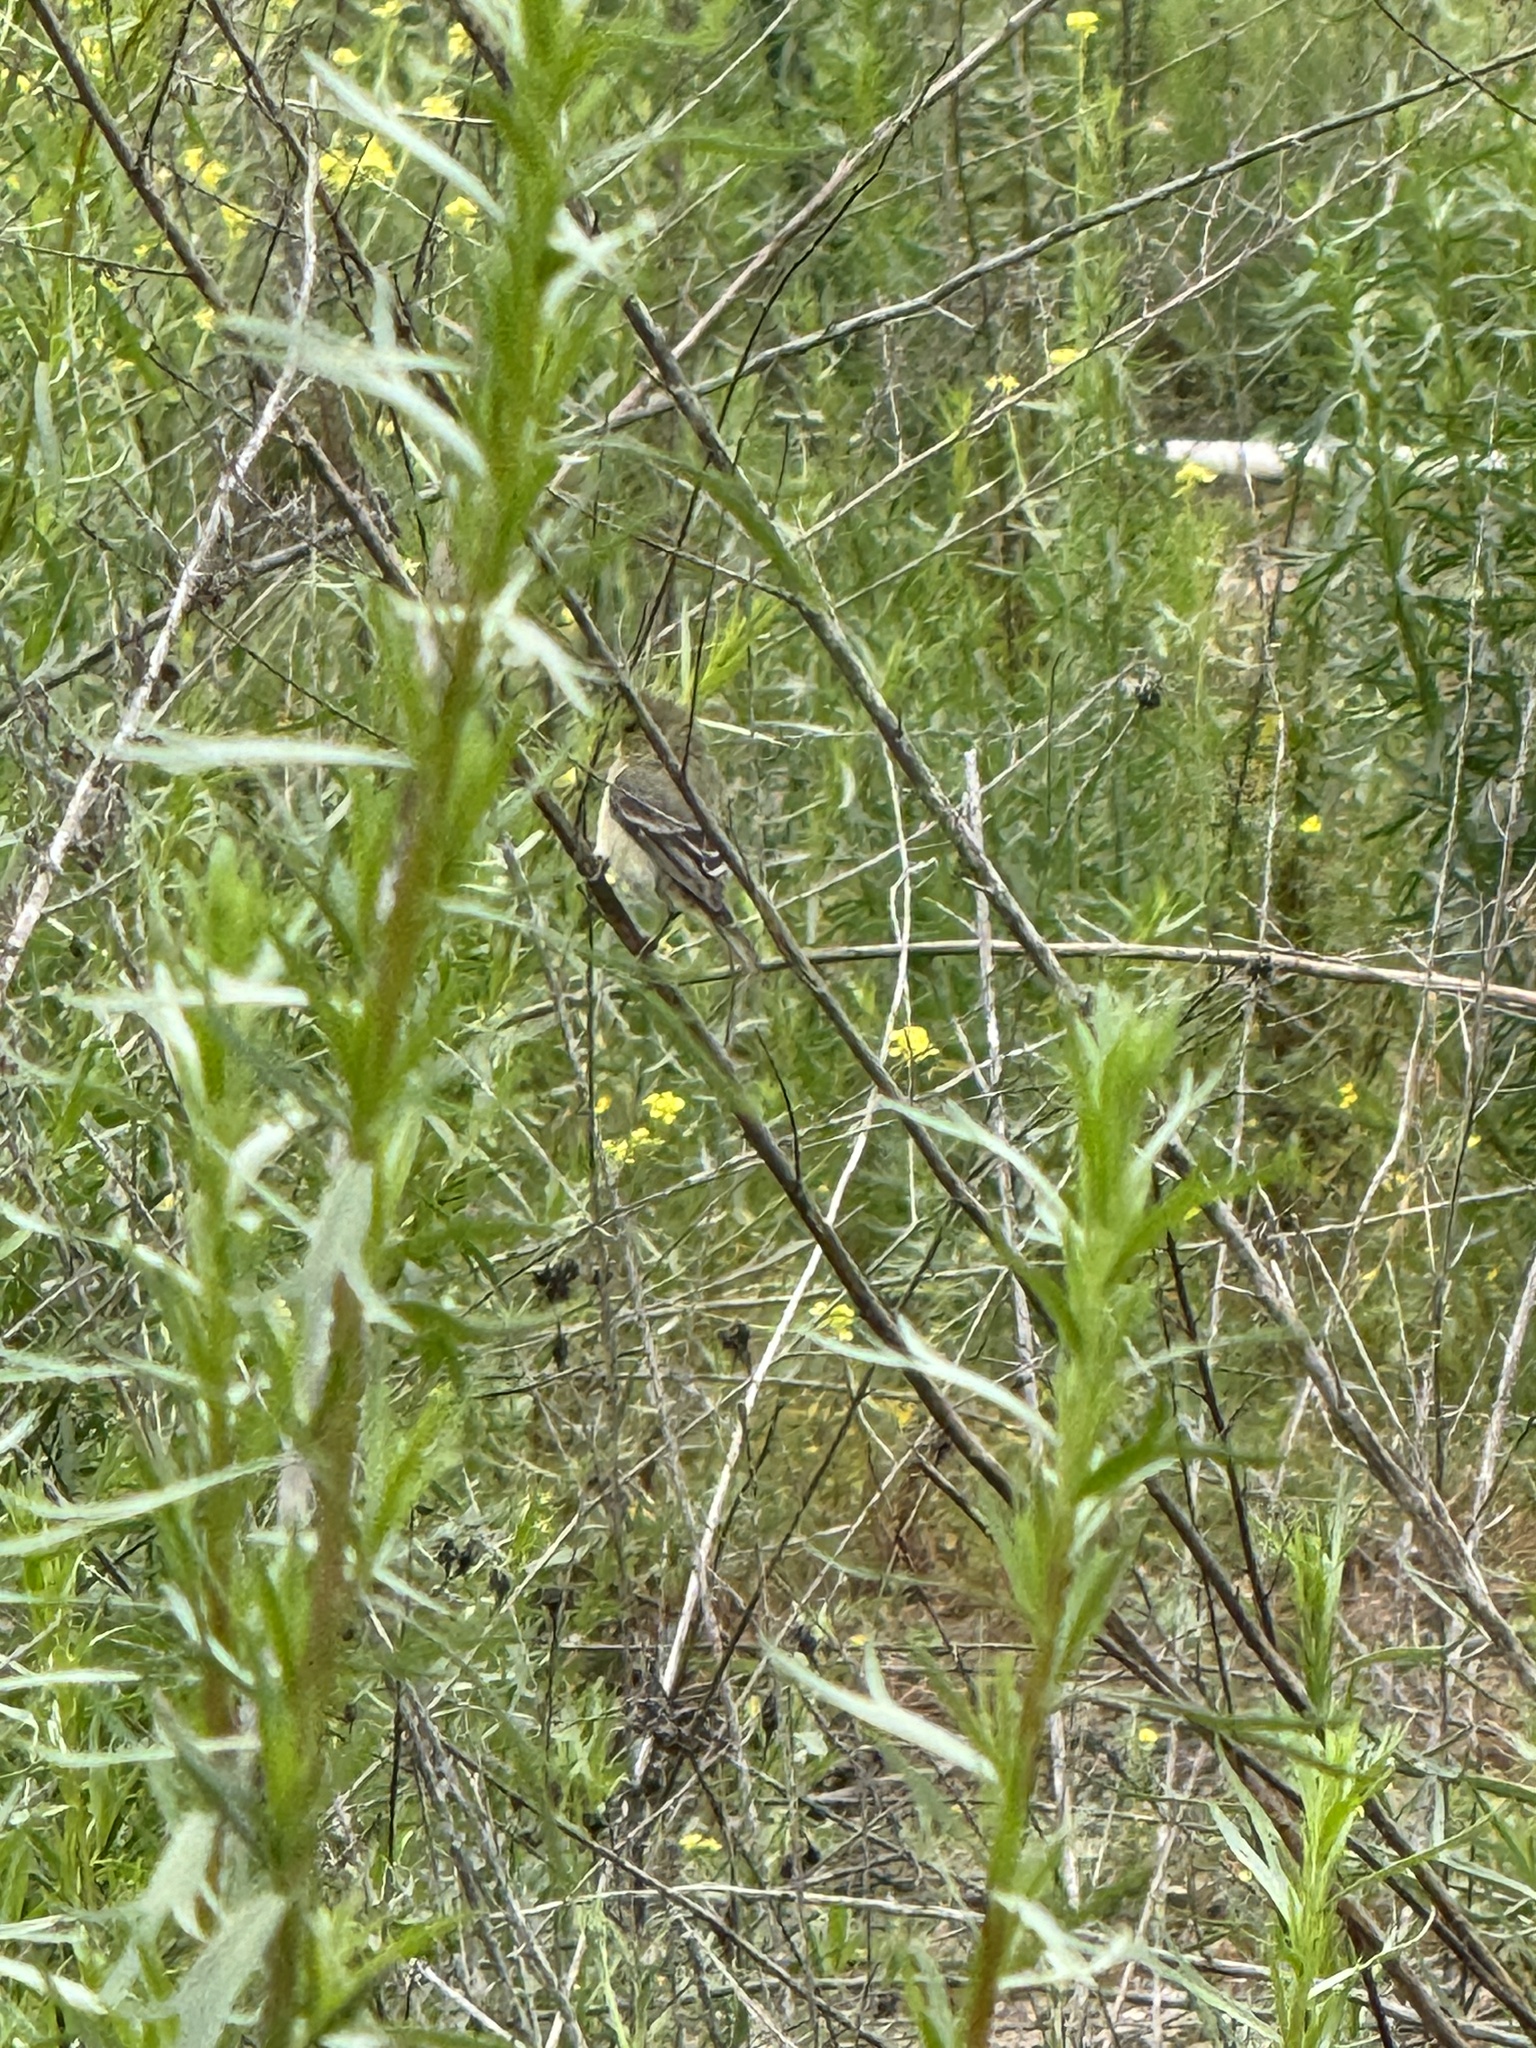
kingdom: Animalia
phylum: Chordata
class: Aves
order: Passeriformes
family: Fringillidae
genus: Spinus
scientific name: Spinus psaltria
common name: Lesser goldfinch
